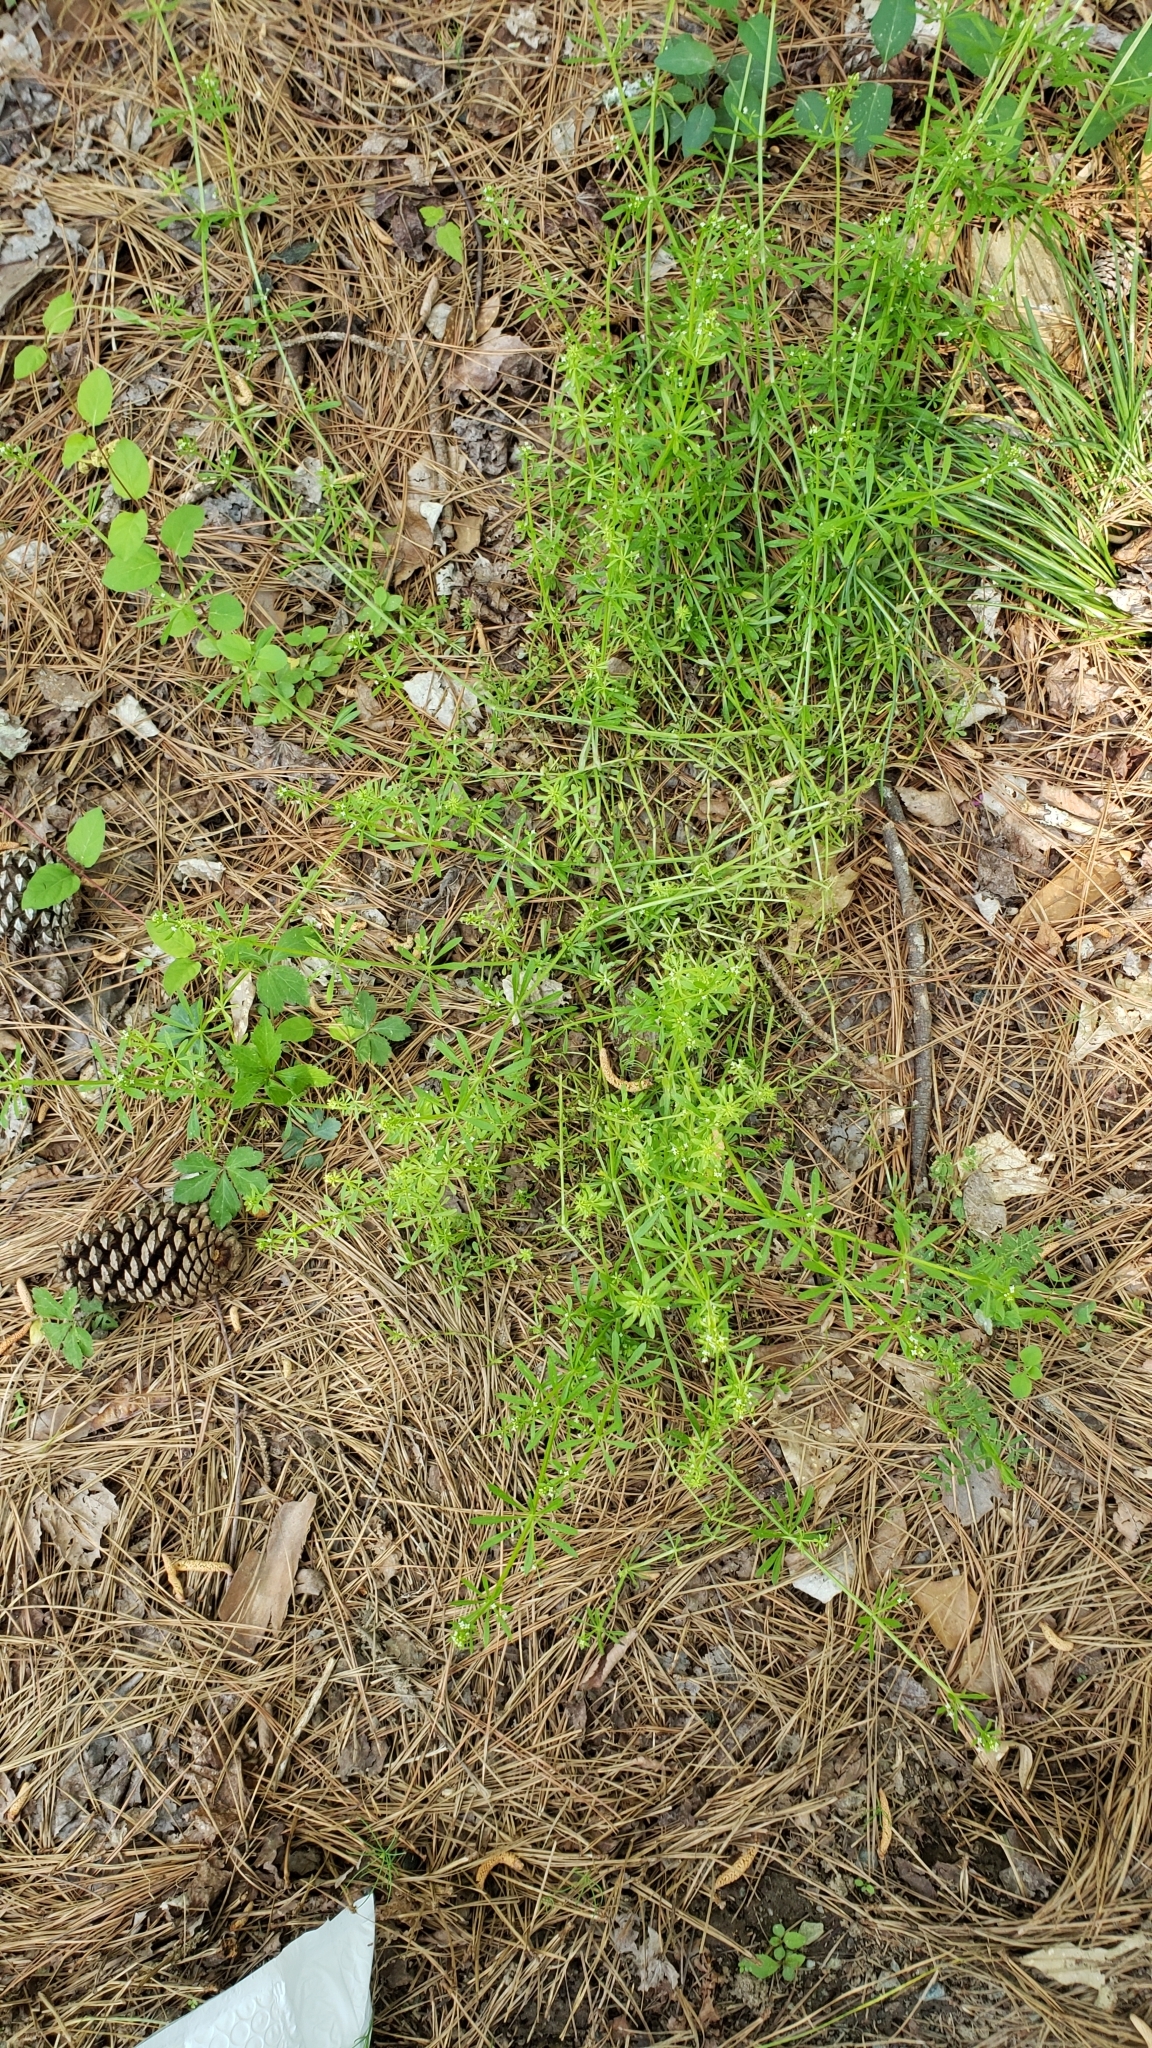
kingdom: Plantae
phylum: Tracheophyta
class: Magnoliopsida
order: Gentianales
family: Rubiaceae
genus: Galium
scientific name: Galium aparine
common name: Cleavers
